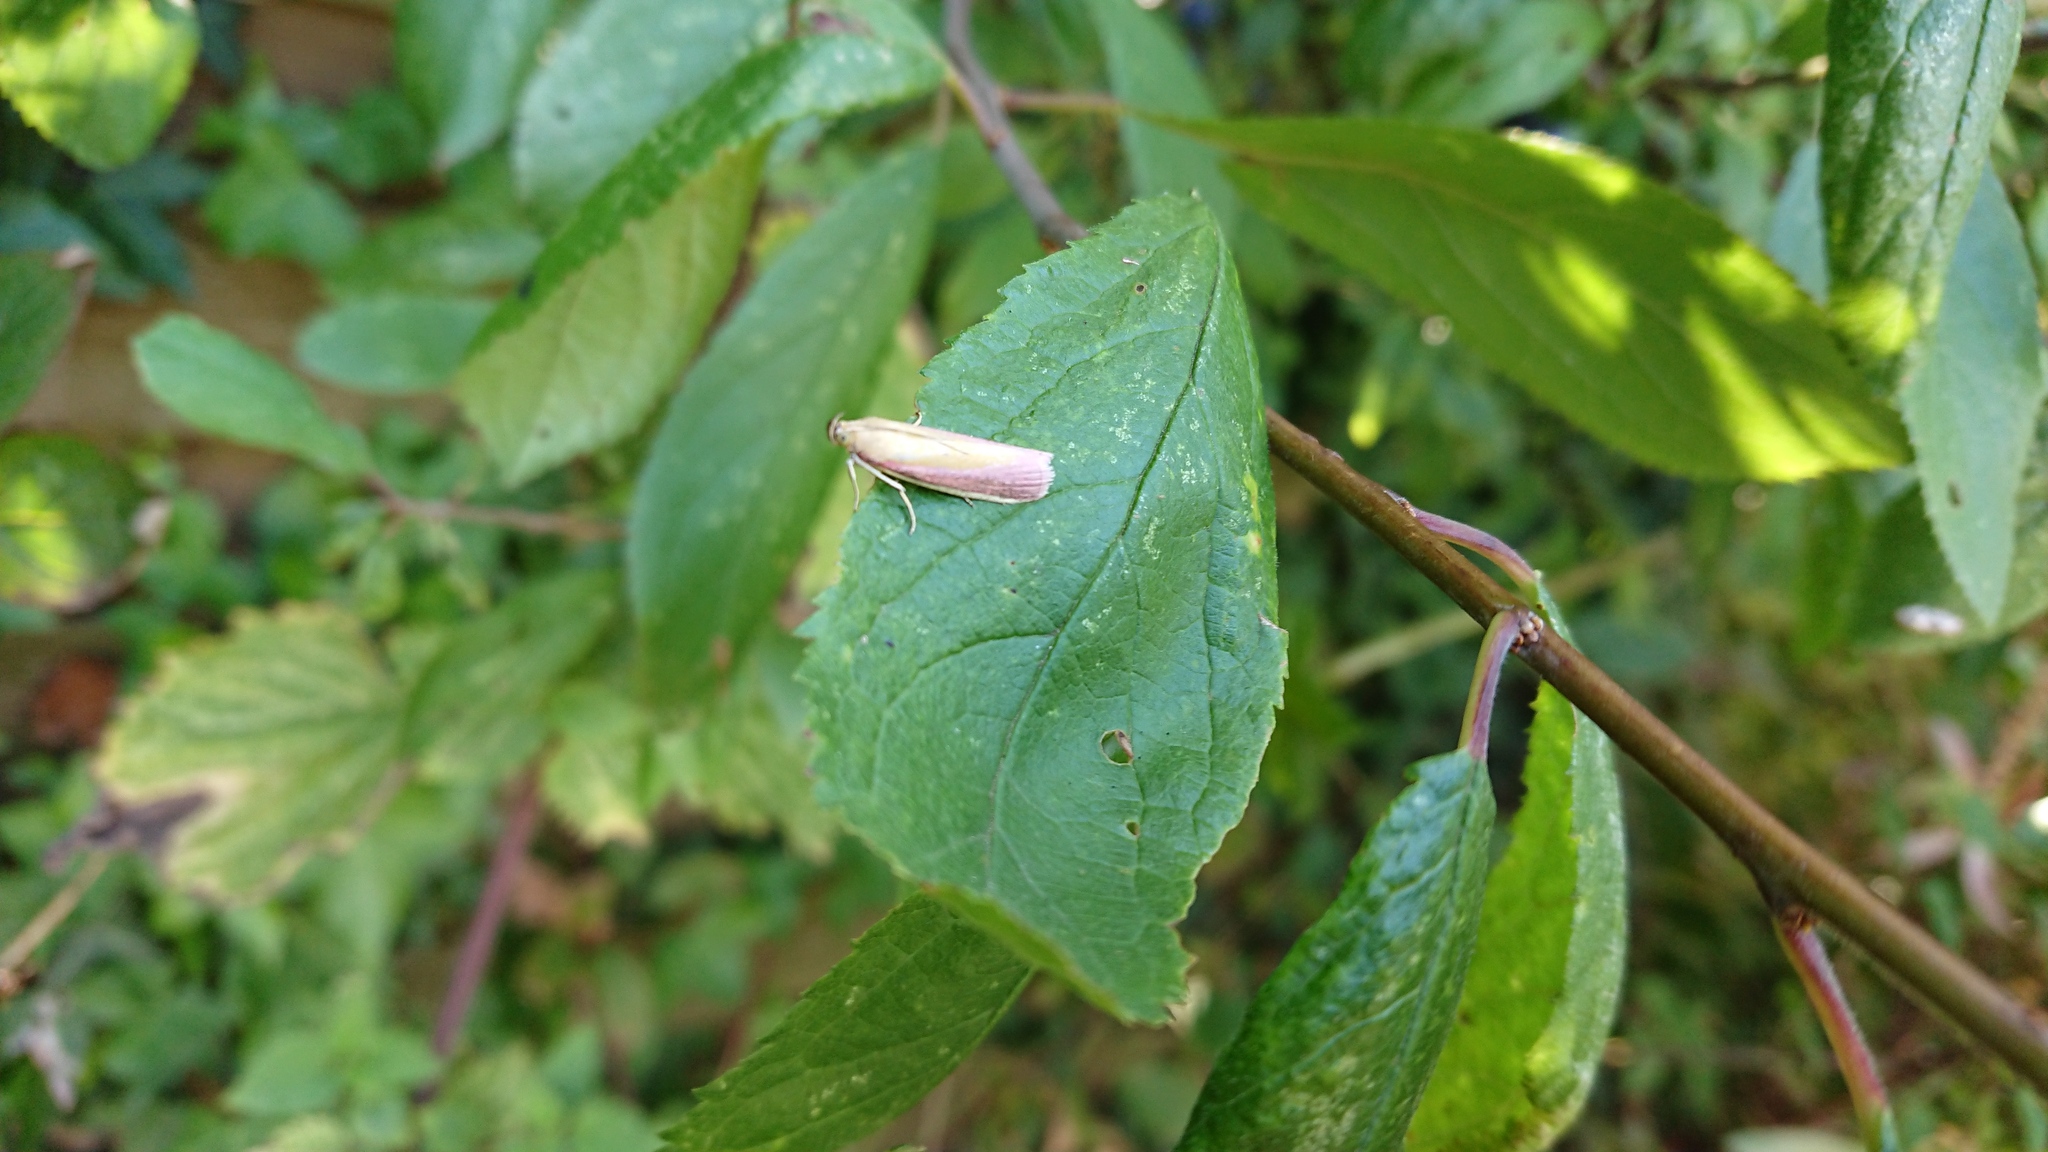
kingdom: Animalia
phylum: Arthropoda
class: Insecta
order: Lepidoptera
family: Pyralidae
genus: Oncocera
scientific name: Oncocera semirubella
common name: Rosy-striped knot-horn
